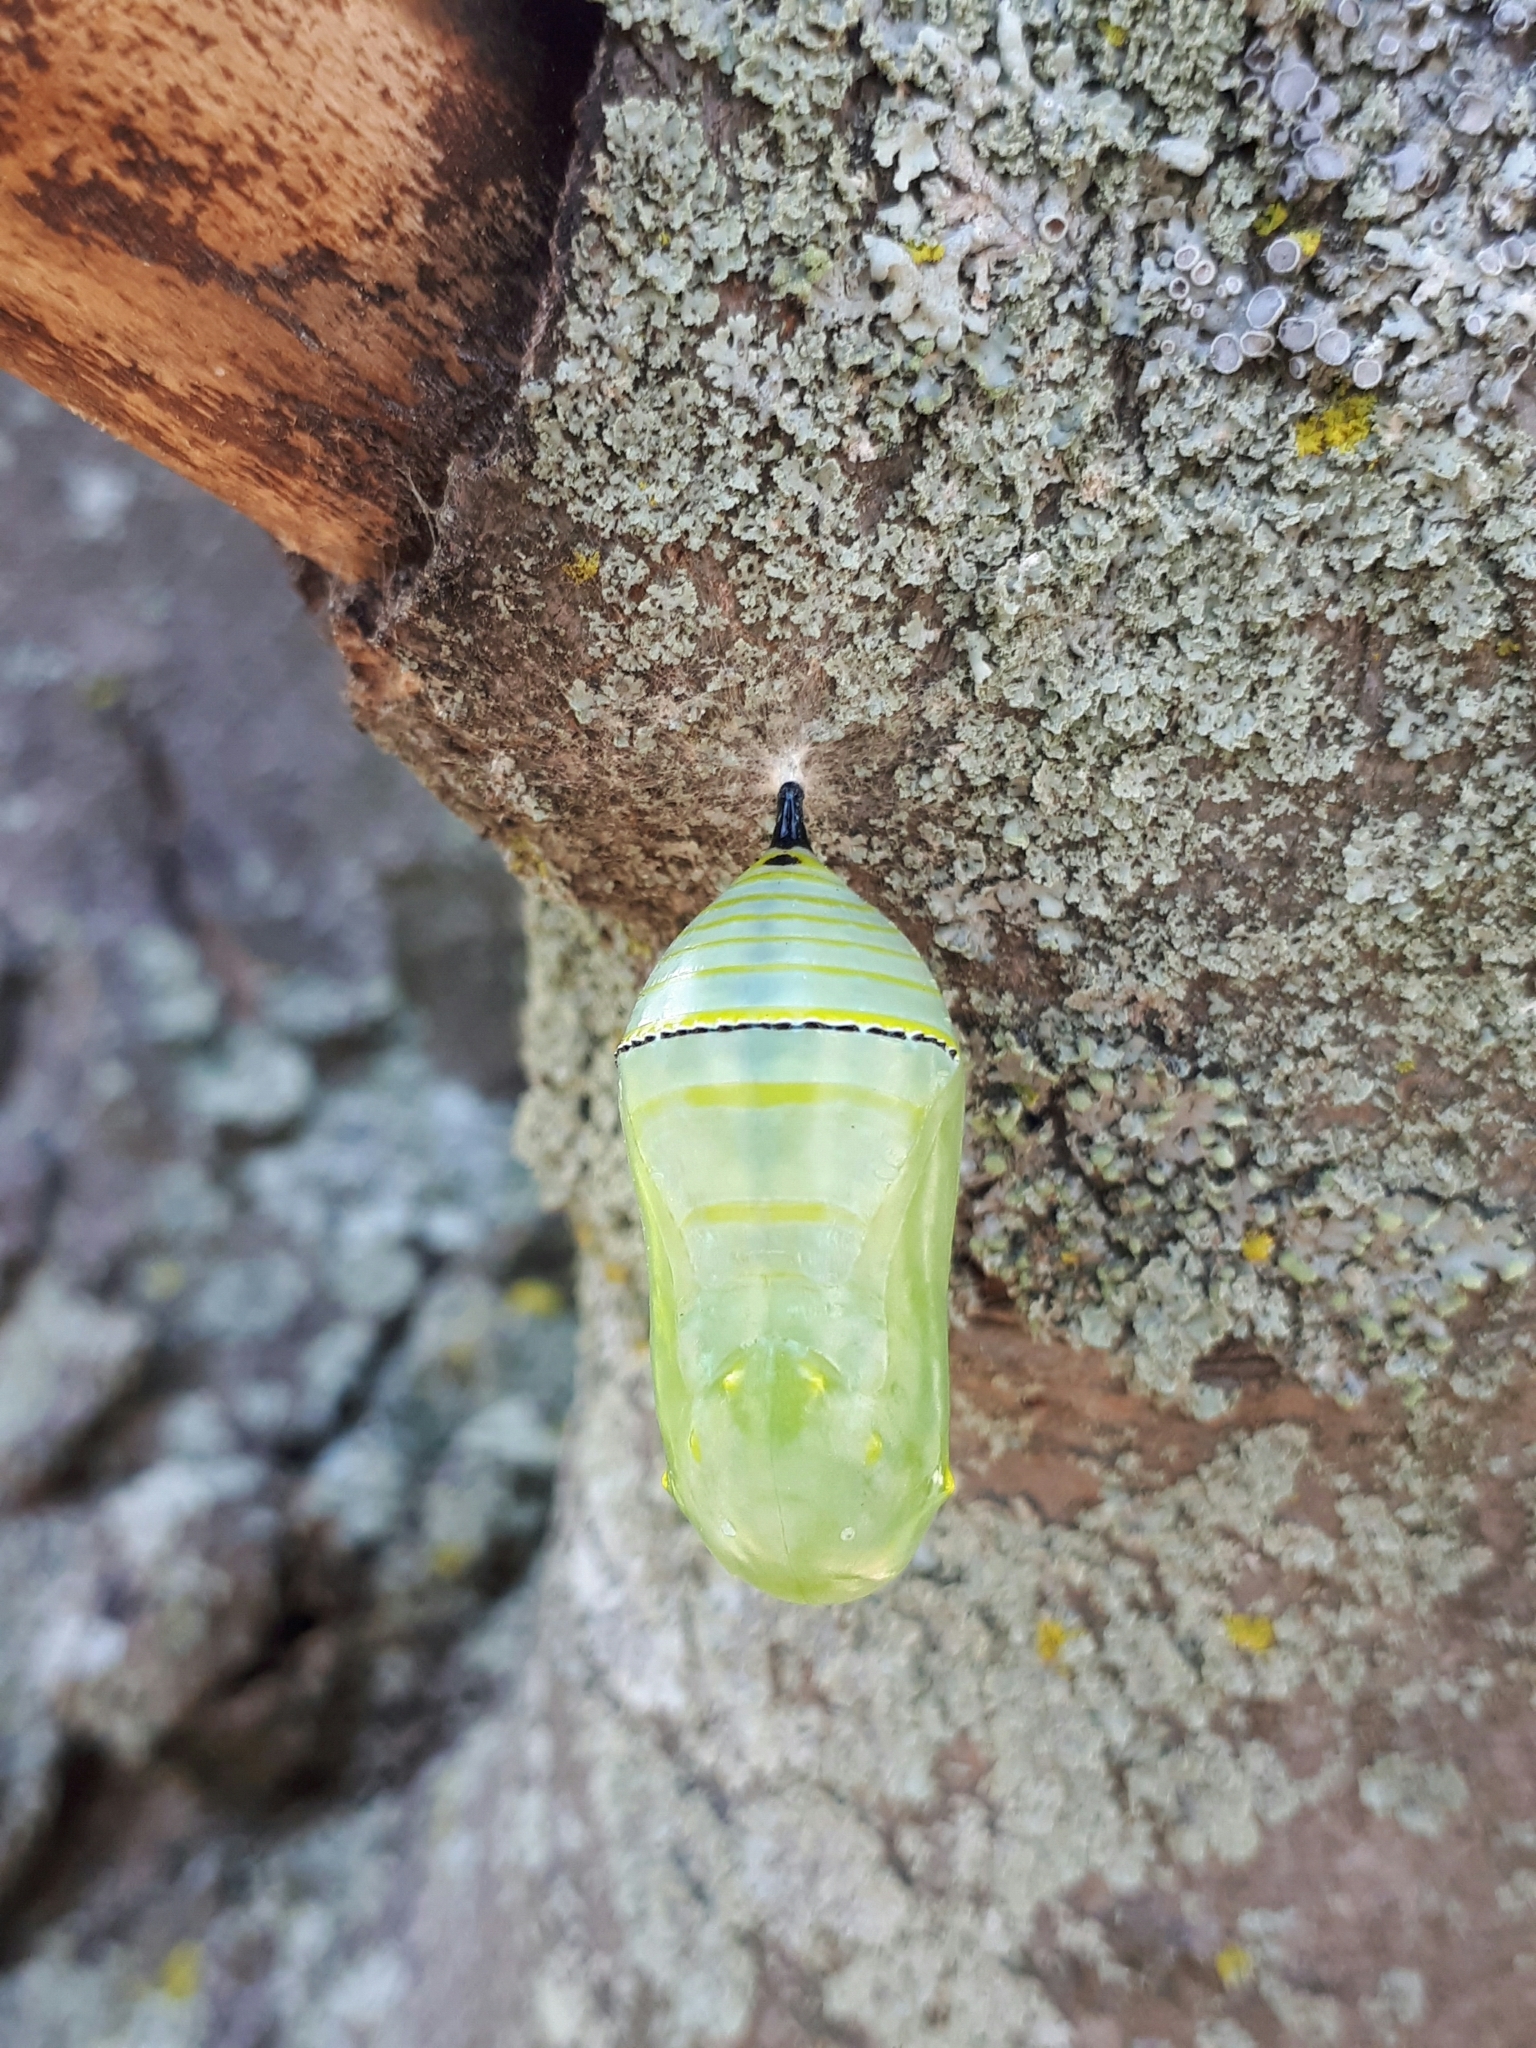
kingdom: Animalia
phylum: Arthropoda
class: Insecta
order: Lepidoptera
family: Nymphalidae
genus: Danaus
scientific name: Danaus plexippus
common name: Monarch
